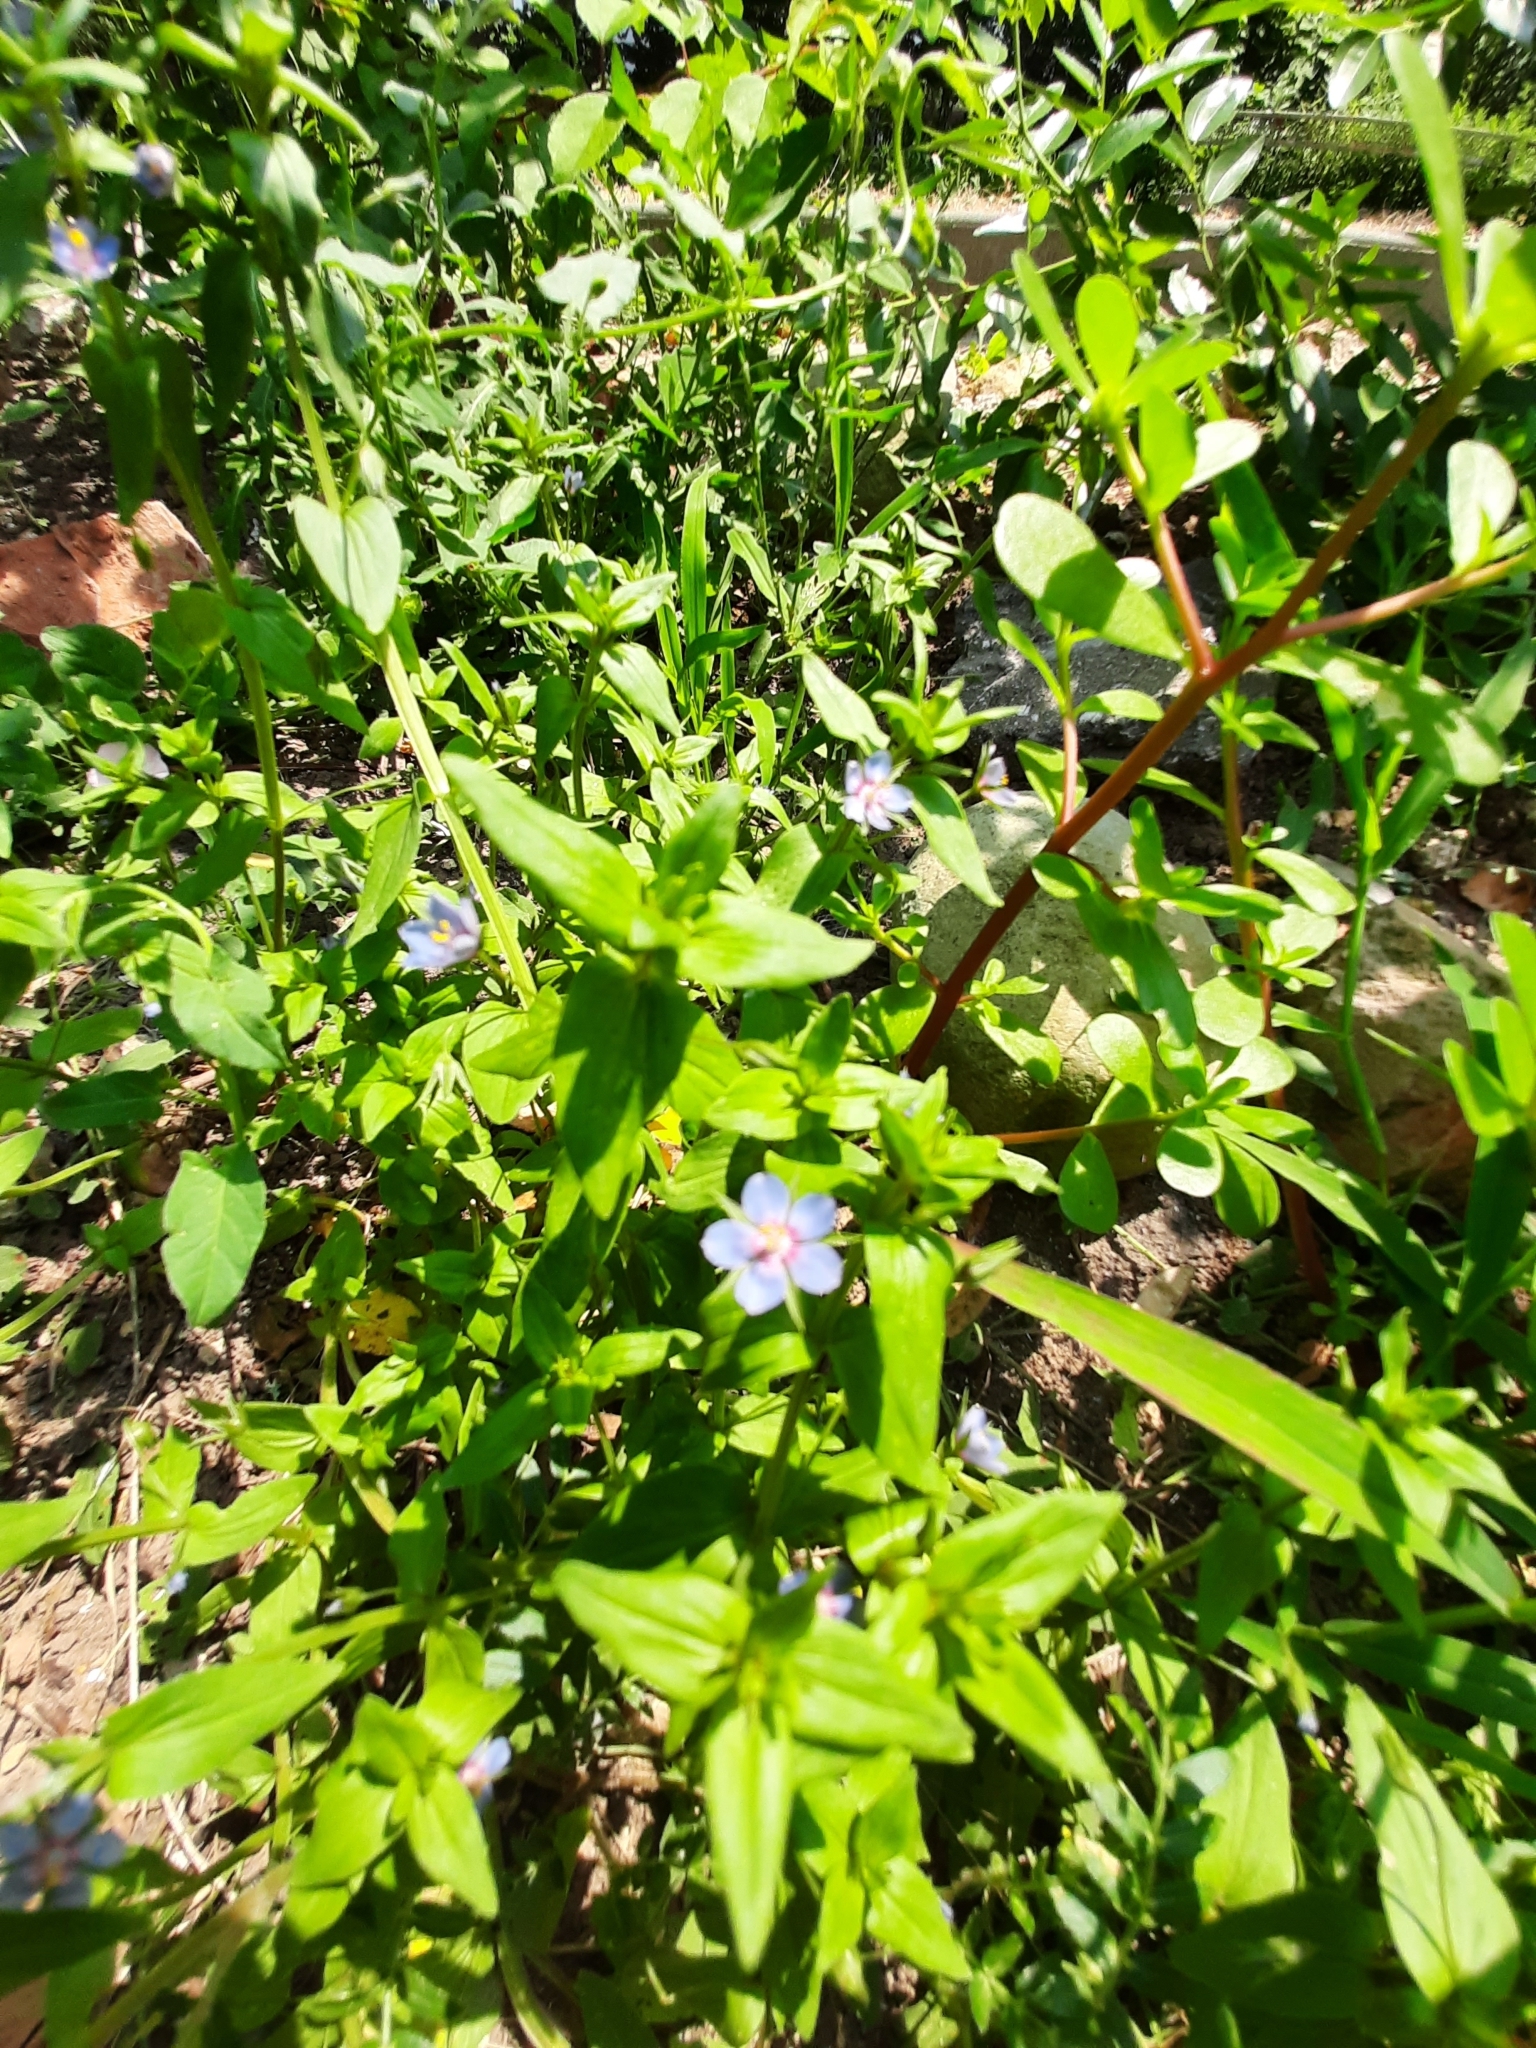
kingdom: Plantae
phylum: Tracheophyta
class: Magnoliopsida
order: Ericales
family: Primulaceae
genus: Lysimachia
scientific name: Lysimachia foemina
